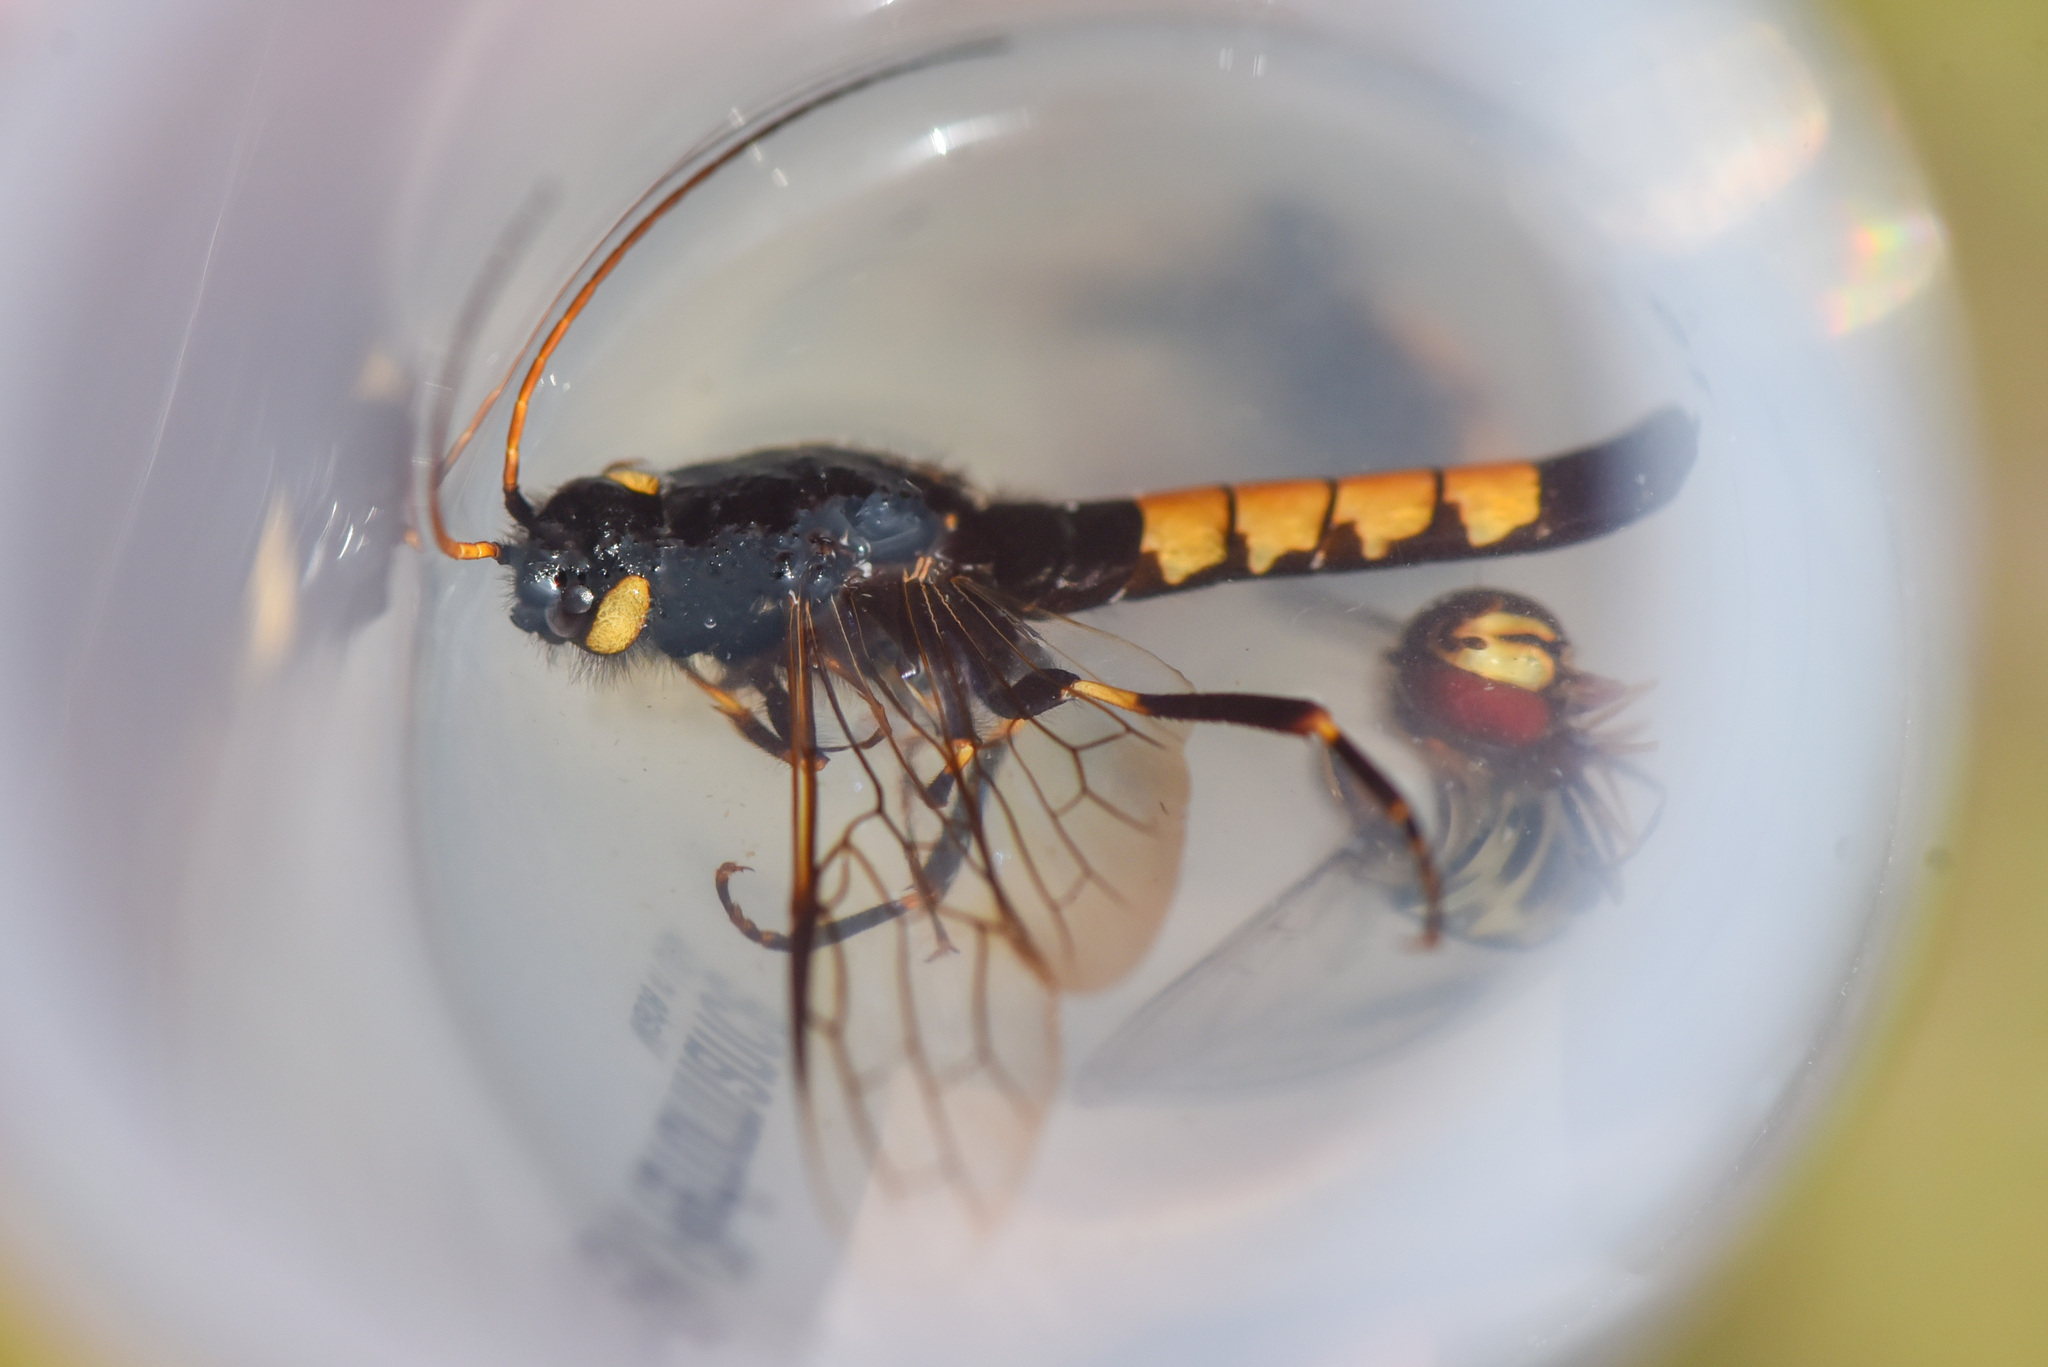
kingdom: Animalia
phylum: Arthropoda
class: Insecta
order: Hymenoptera
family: Siricidae
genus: Urocerus
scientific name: Urocerus flavicornis
